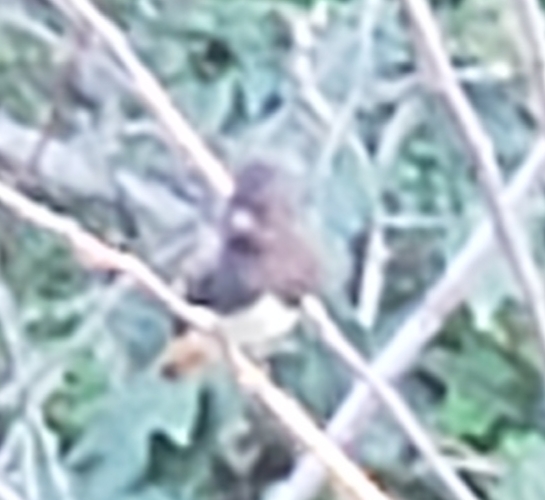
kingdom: Animalia
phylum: Chordata
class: Aves
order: Passeriformes
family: Tyrannidae
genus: Sayornis
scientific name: Sayornis nigricans
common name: Black phoebe
